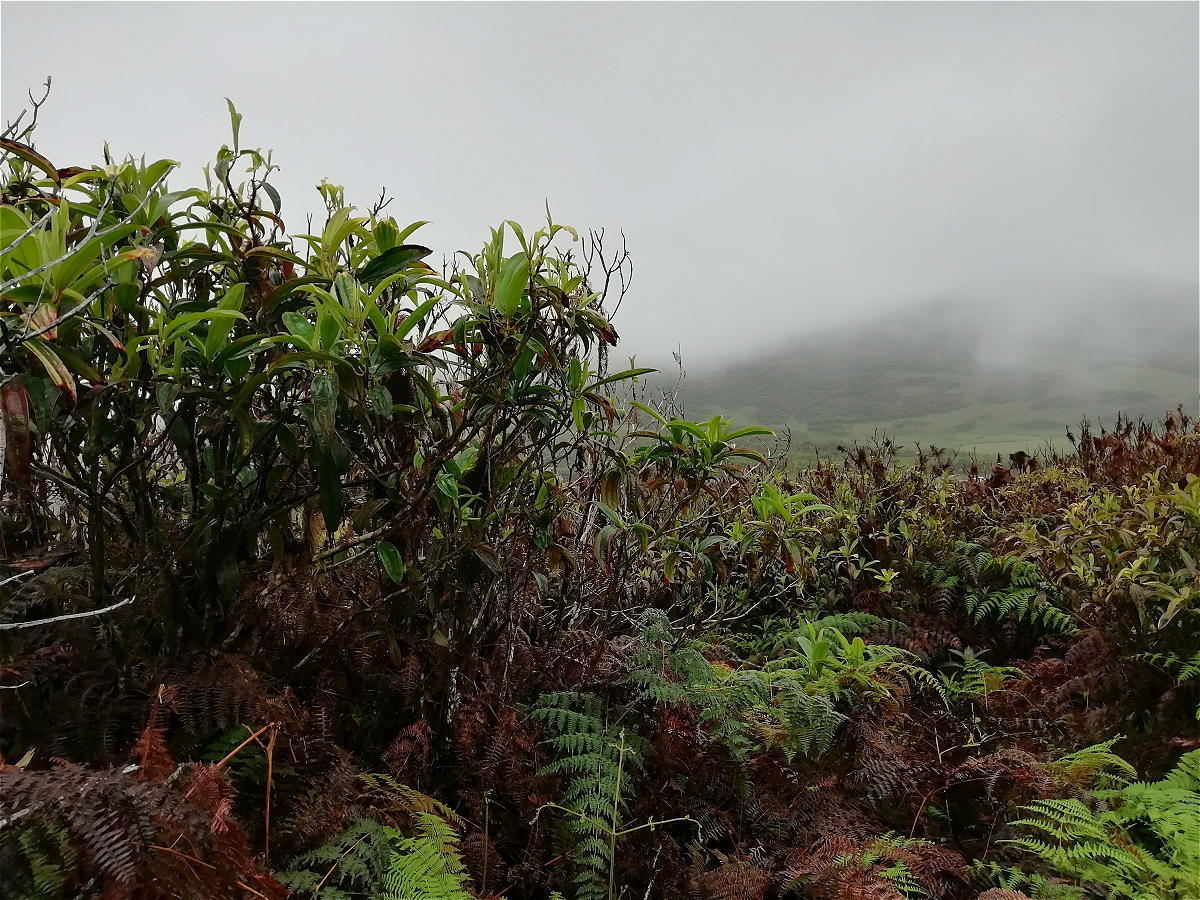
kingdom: Plantae
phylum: Tracheophyta
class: Magnoliopsida
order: Myrtales
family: Melastomataceae
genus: Miconia
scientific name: Miconia robinsoniana
